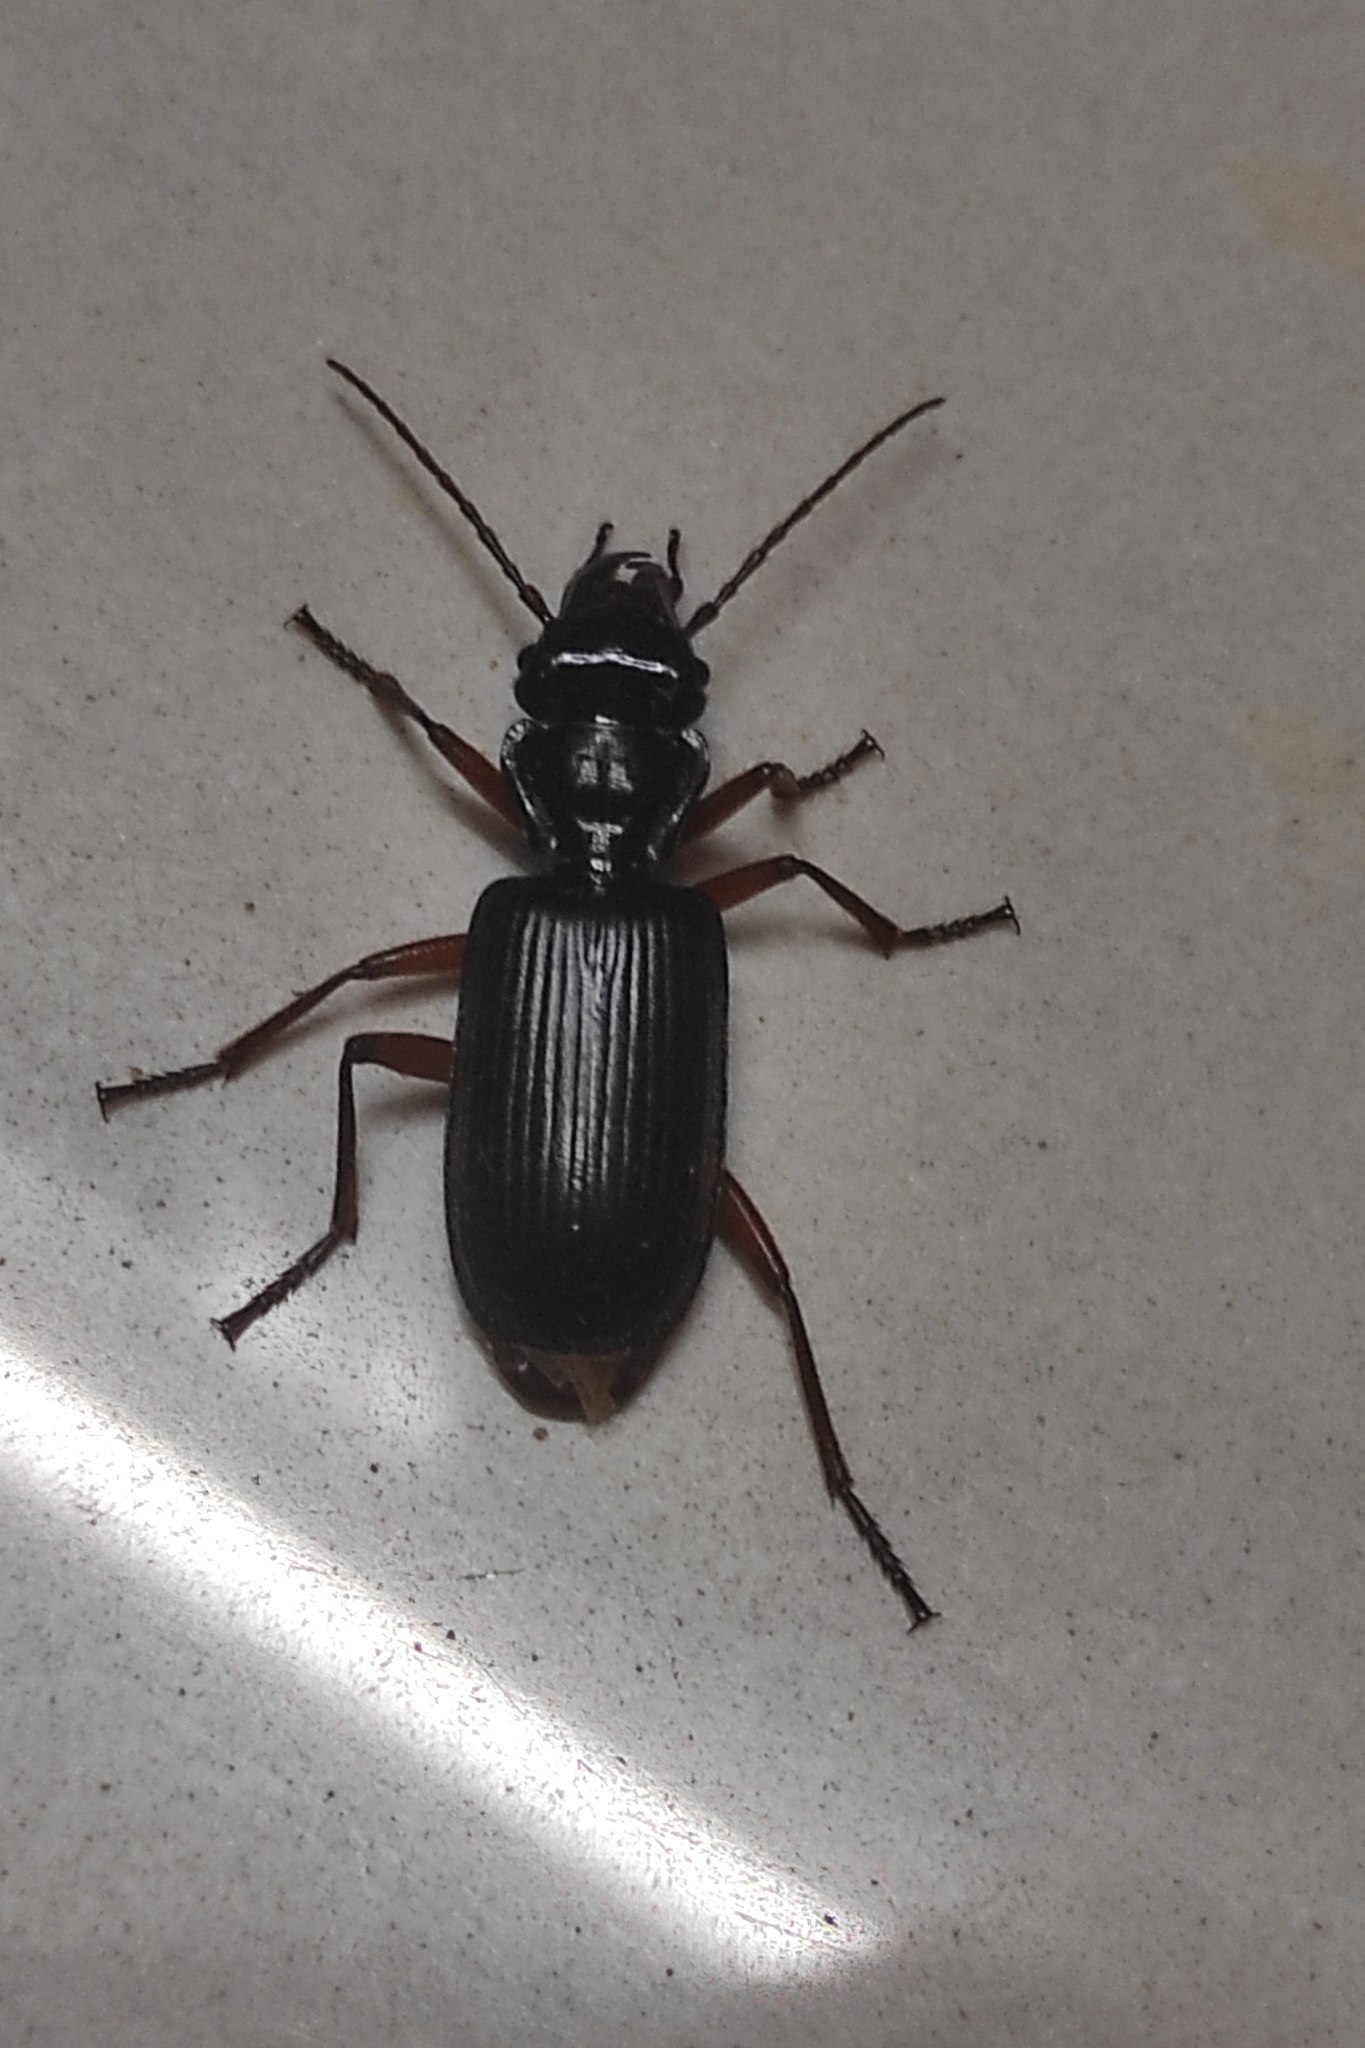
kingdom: Animalia
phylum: Arthropoda
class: Insecta
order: Coleoptera
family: Carabidae
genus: Helluodes
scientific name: Helluodes devagiriensis
